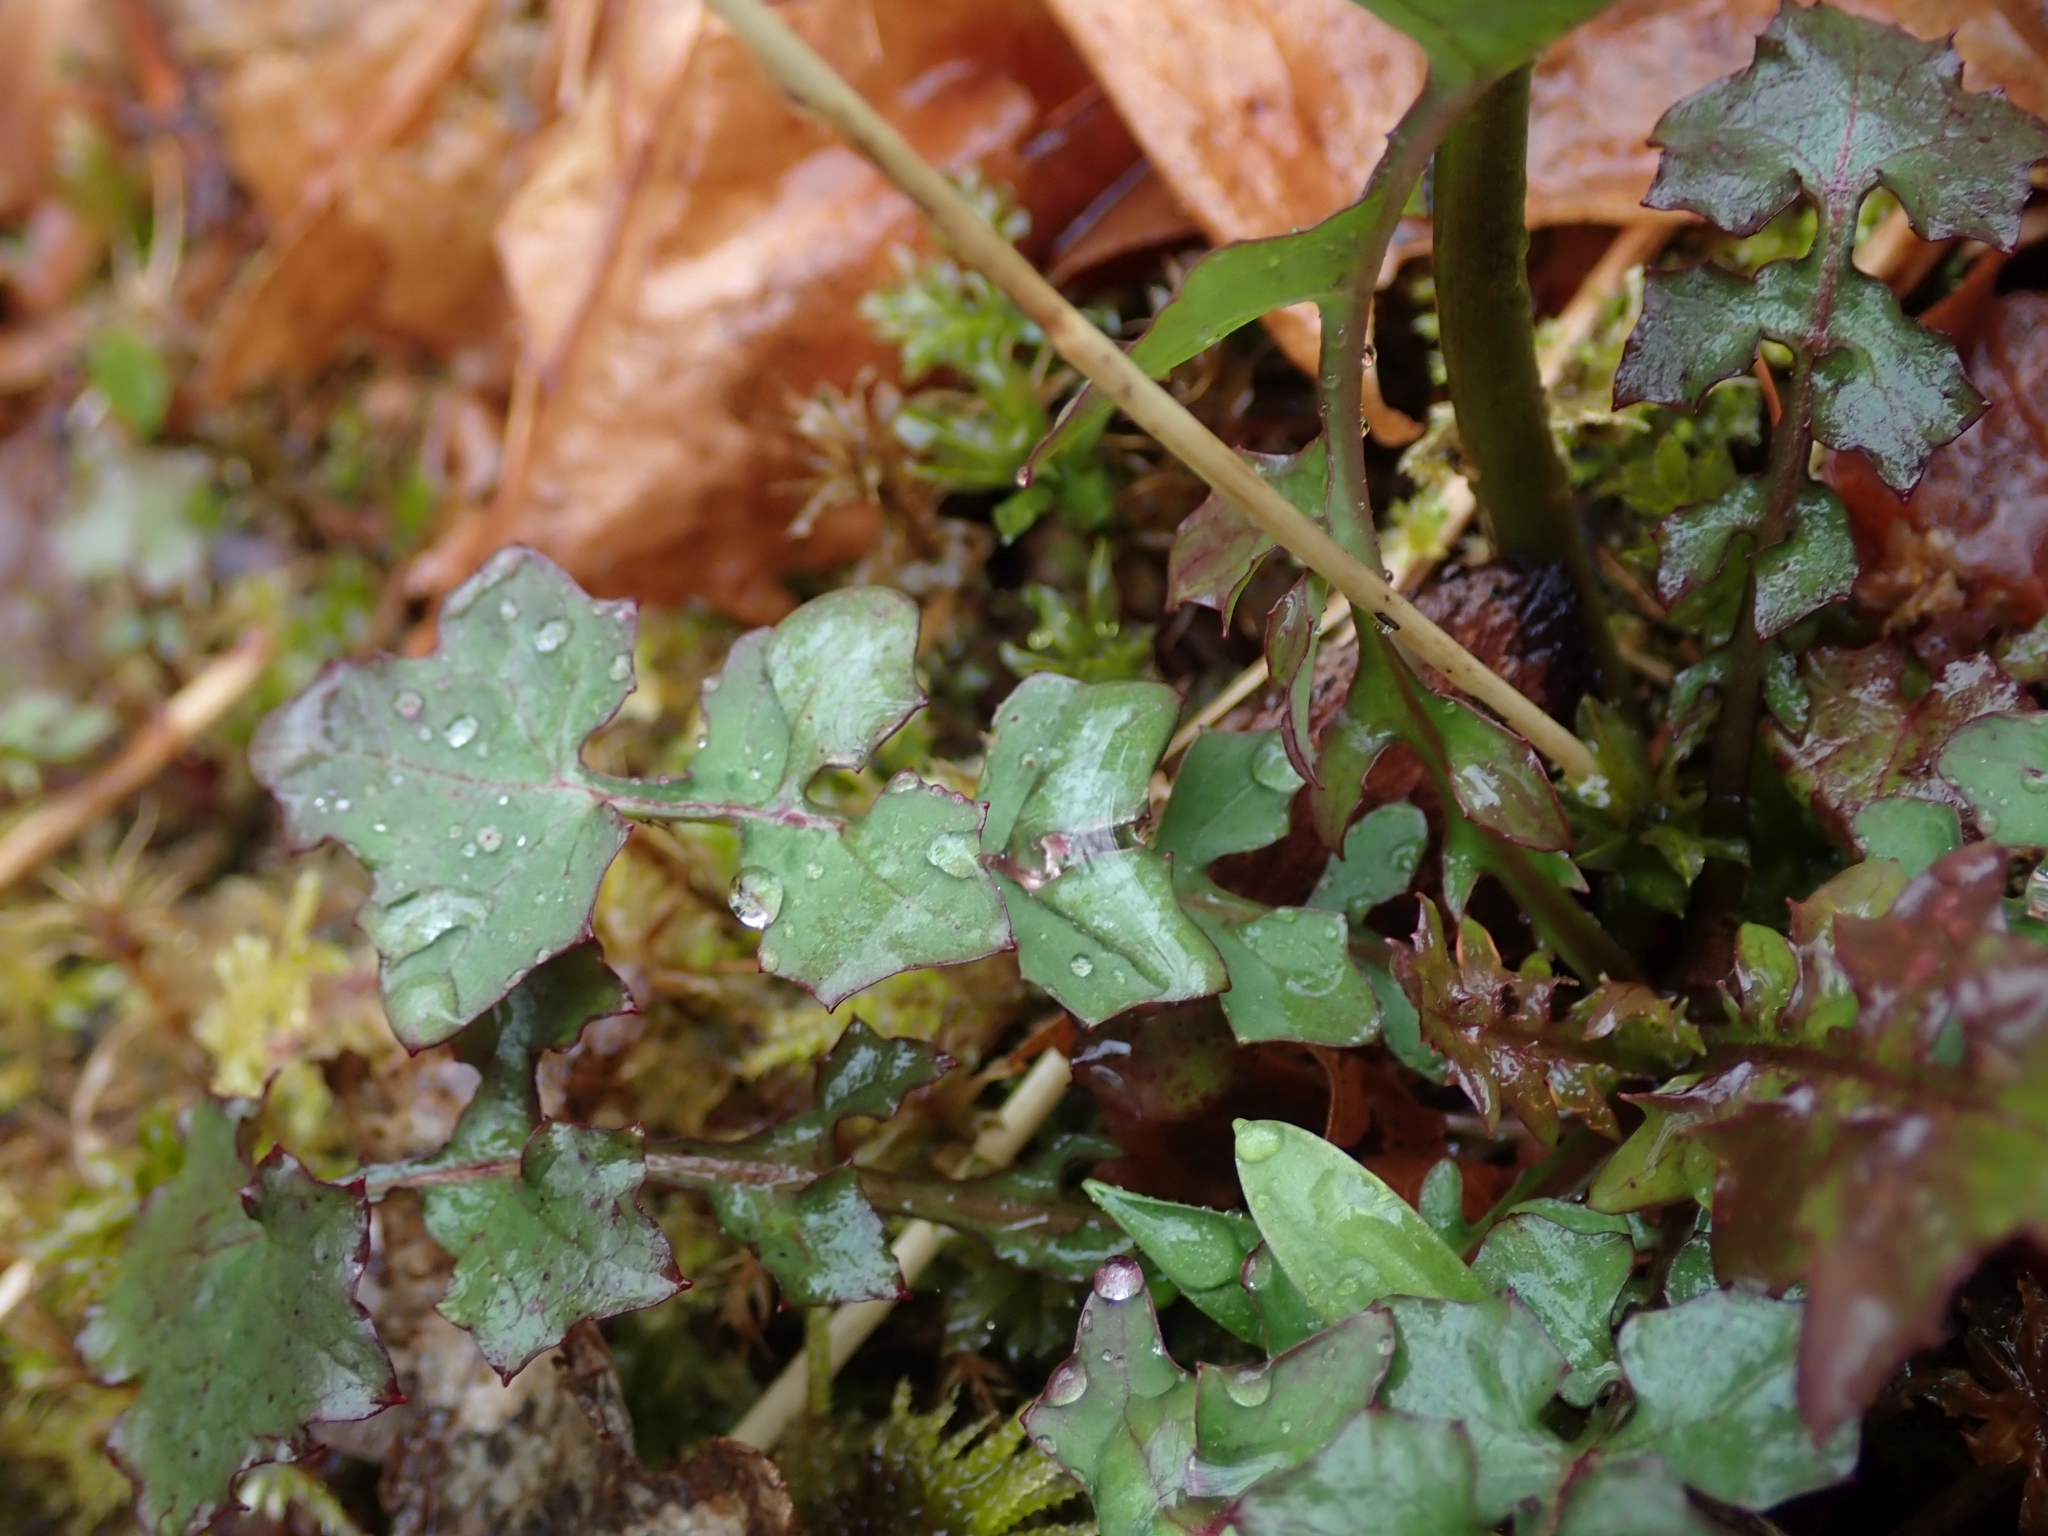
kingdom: Plantae
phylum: Tracheophyta
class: Magnoliopsida
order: Asterales
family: Asteraceae
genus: Mycelis
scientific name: Mycelis muralis
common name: Wall lettuce
